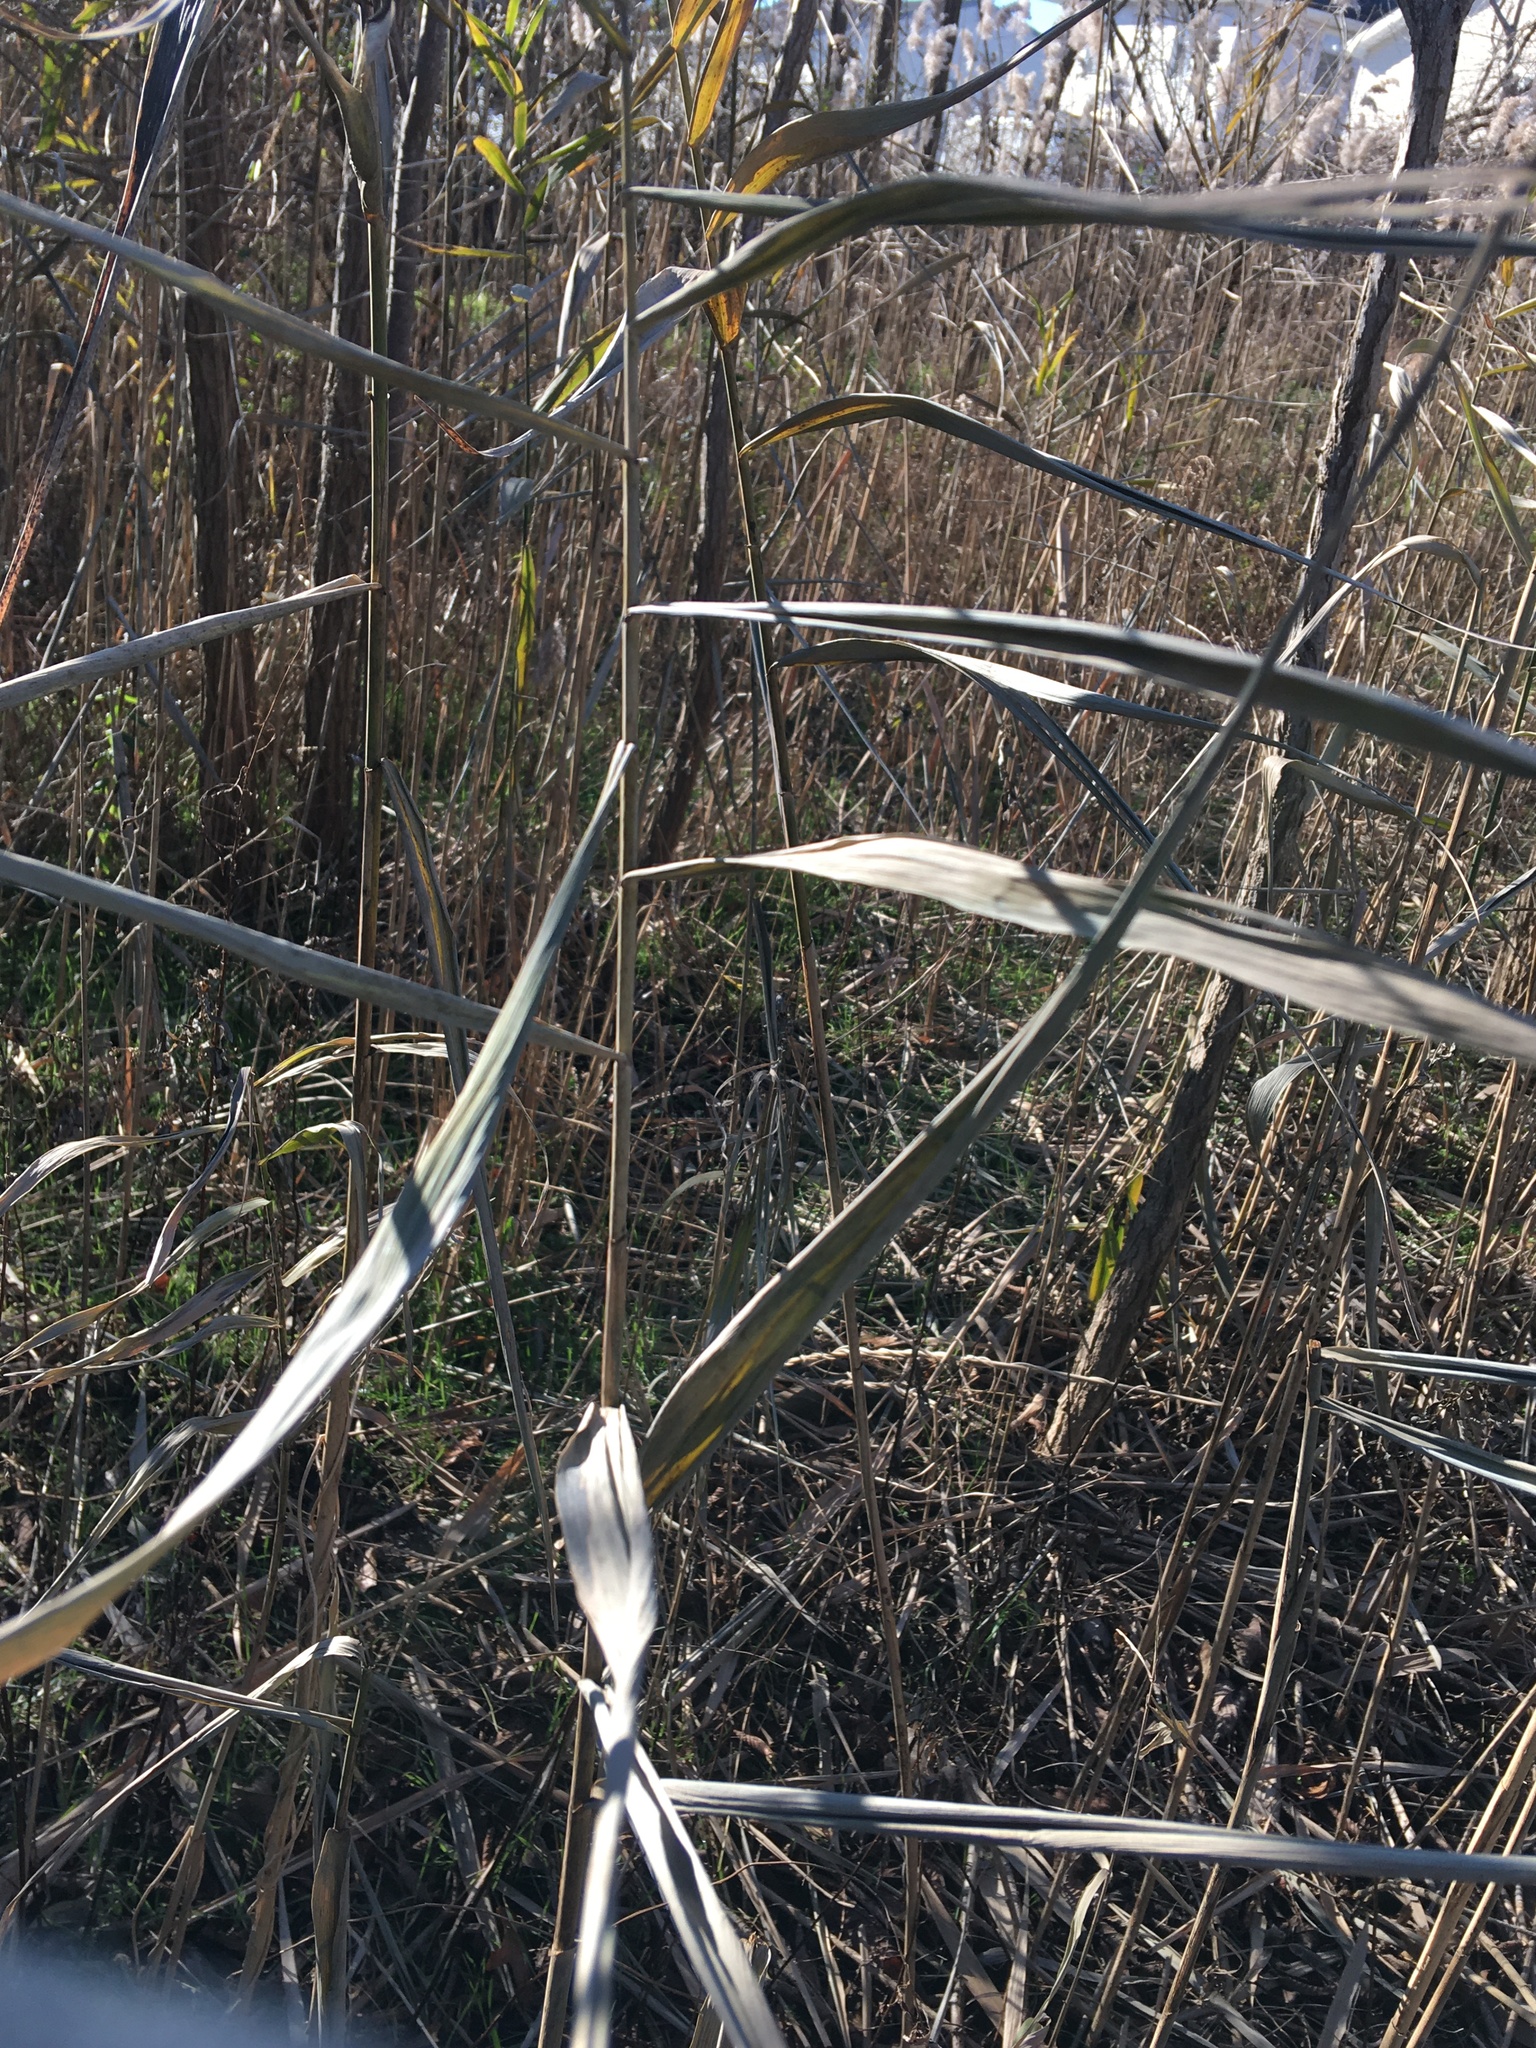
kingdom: Plantae
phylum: Tracheophyta
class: Liliopsida
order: Poales
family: Poaceae
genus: Phragmites
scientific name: Phragmites australis
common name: Common reed
